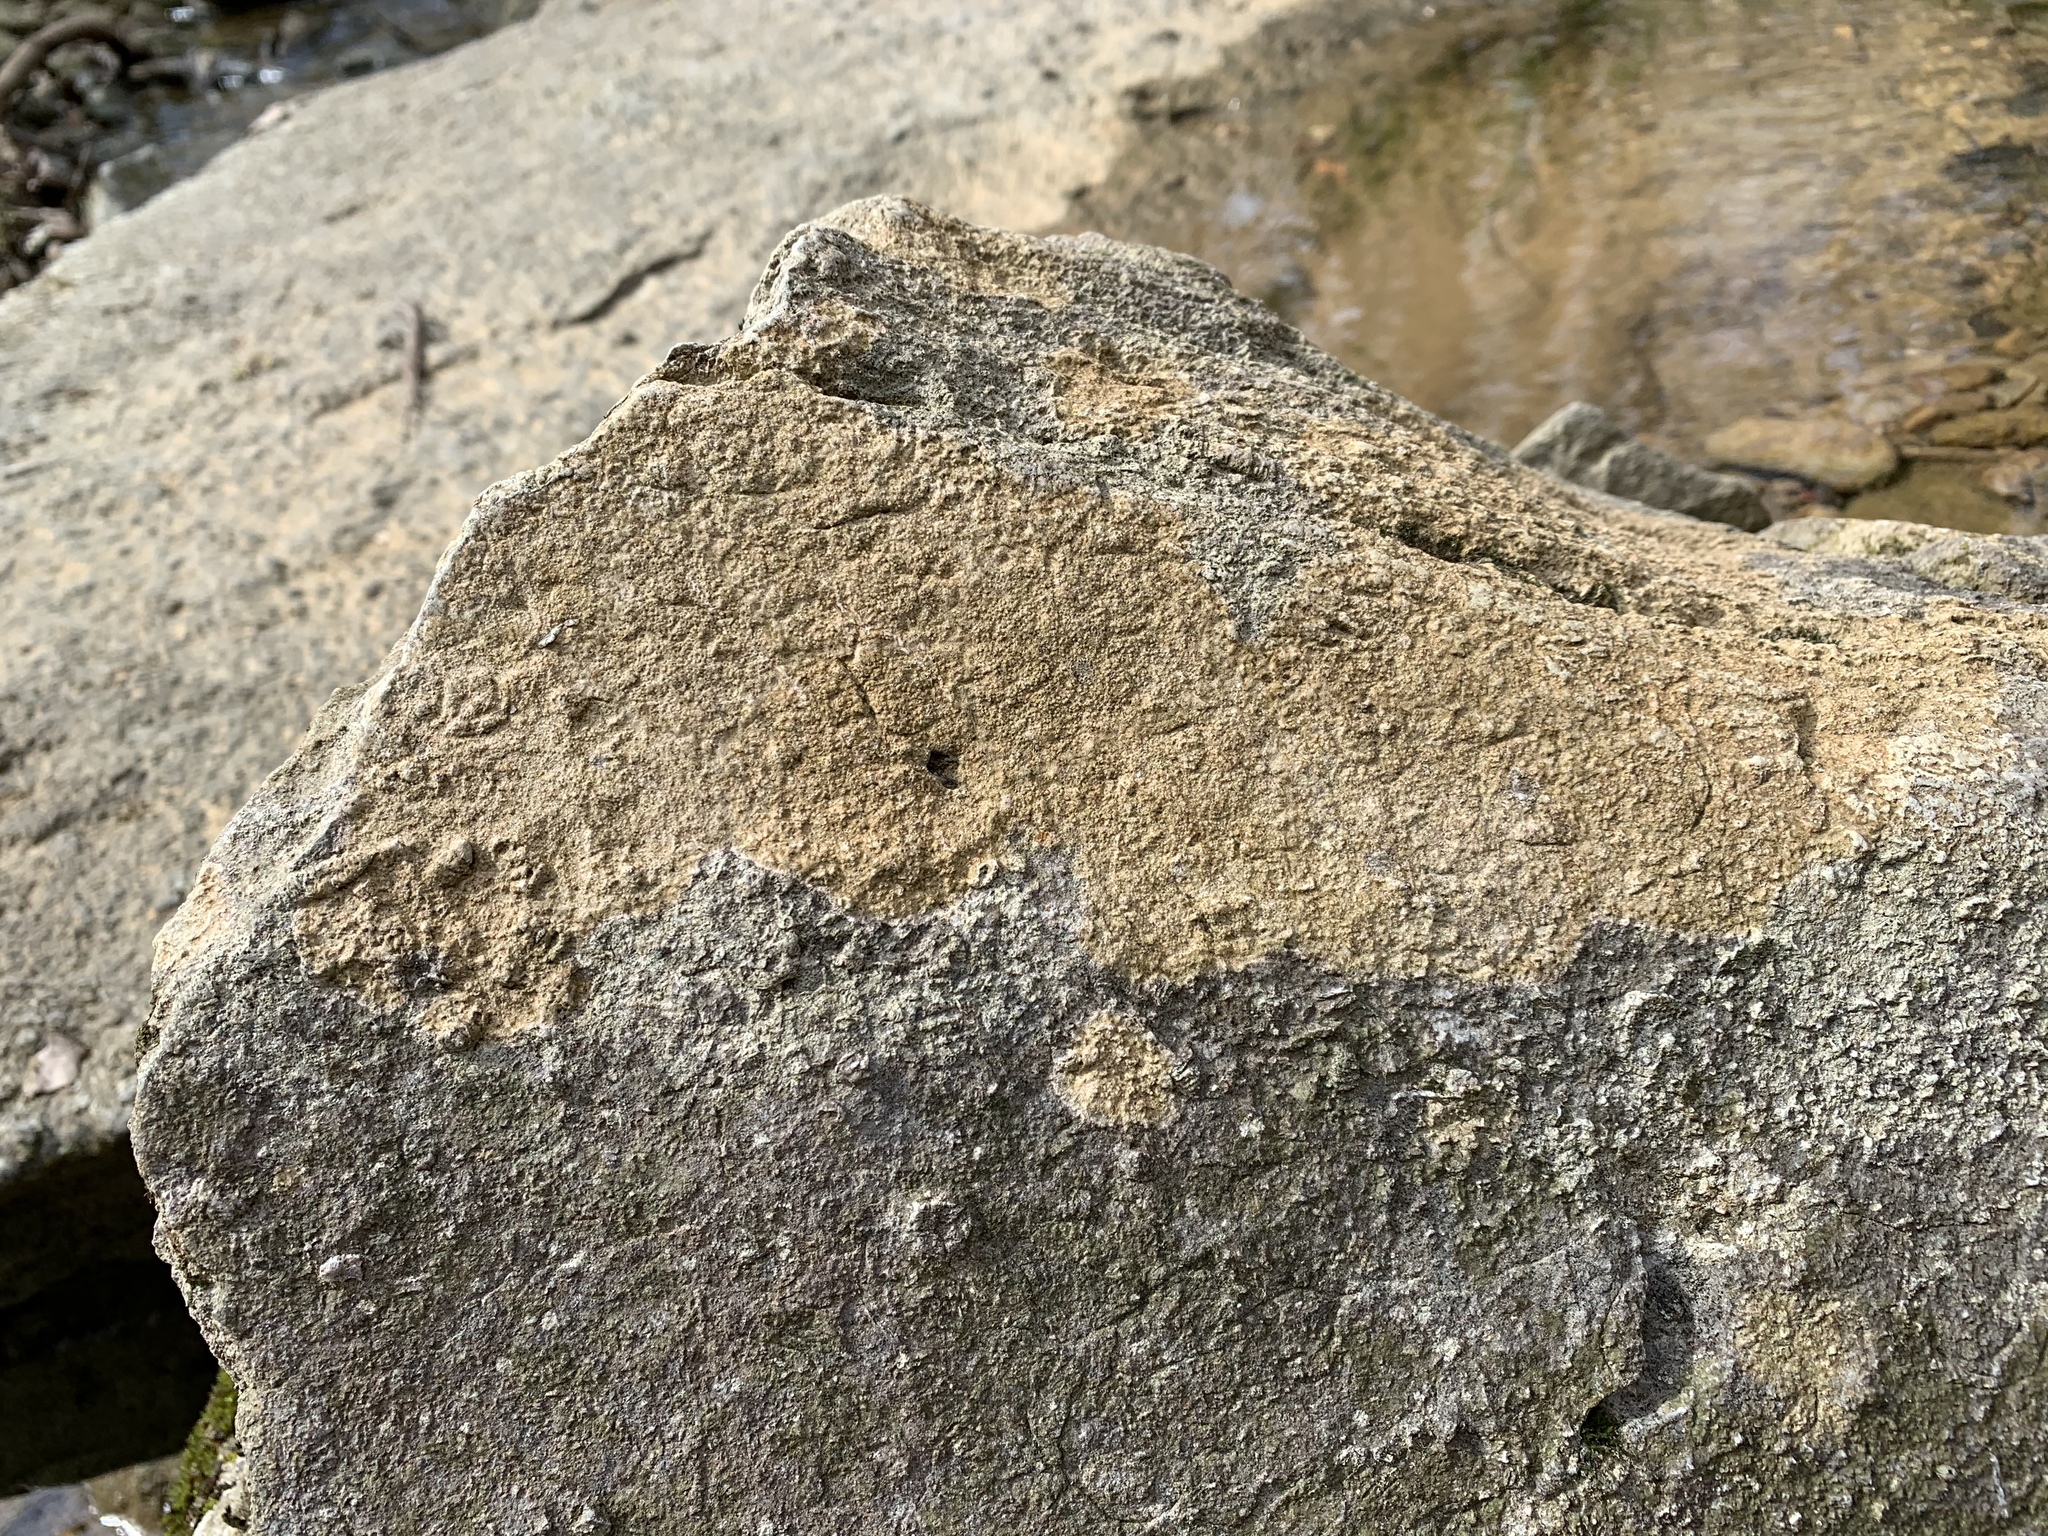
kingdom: Fungi
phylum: Ascomycota
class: Lecanoromycetes
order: Ostropales
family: Stictidaceae
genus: Petractis
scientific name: Petractis farlowii
